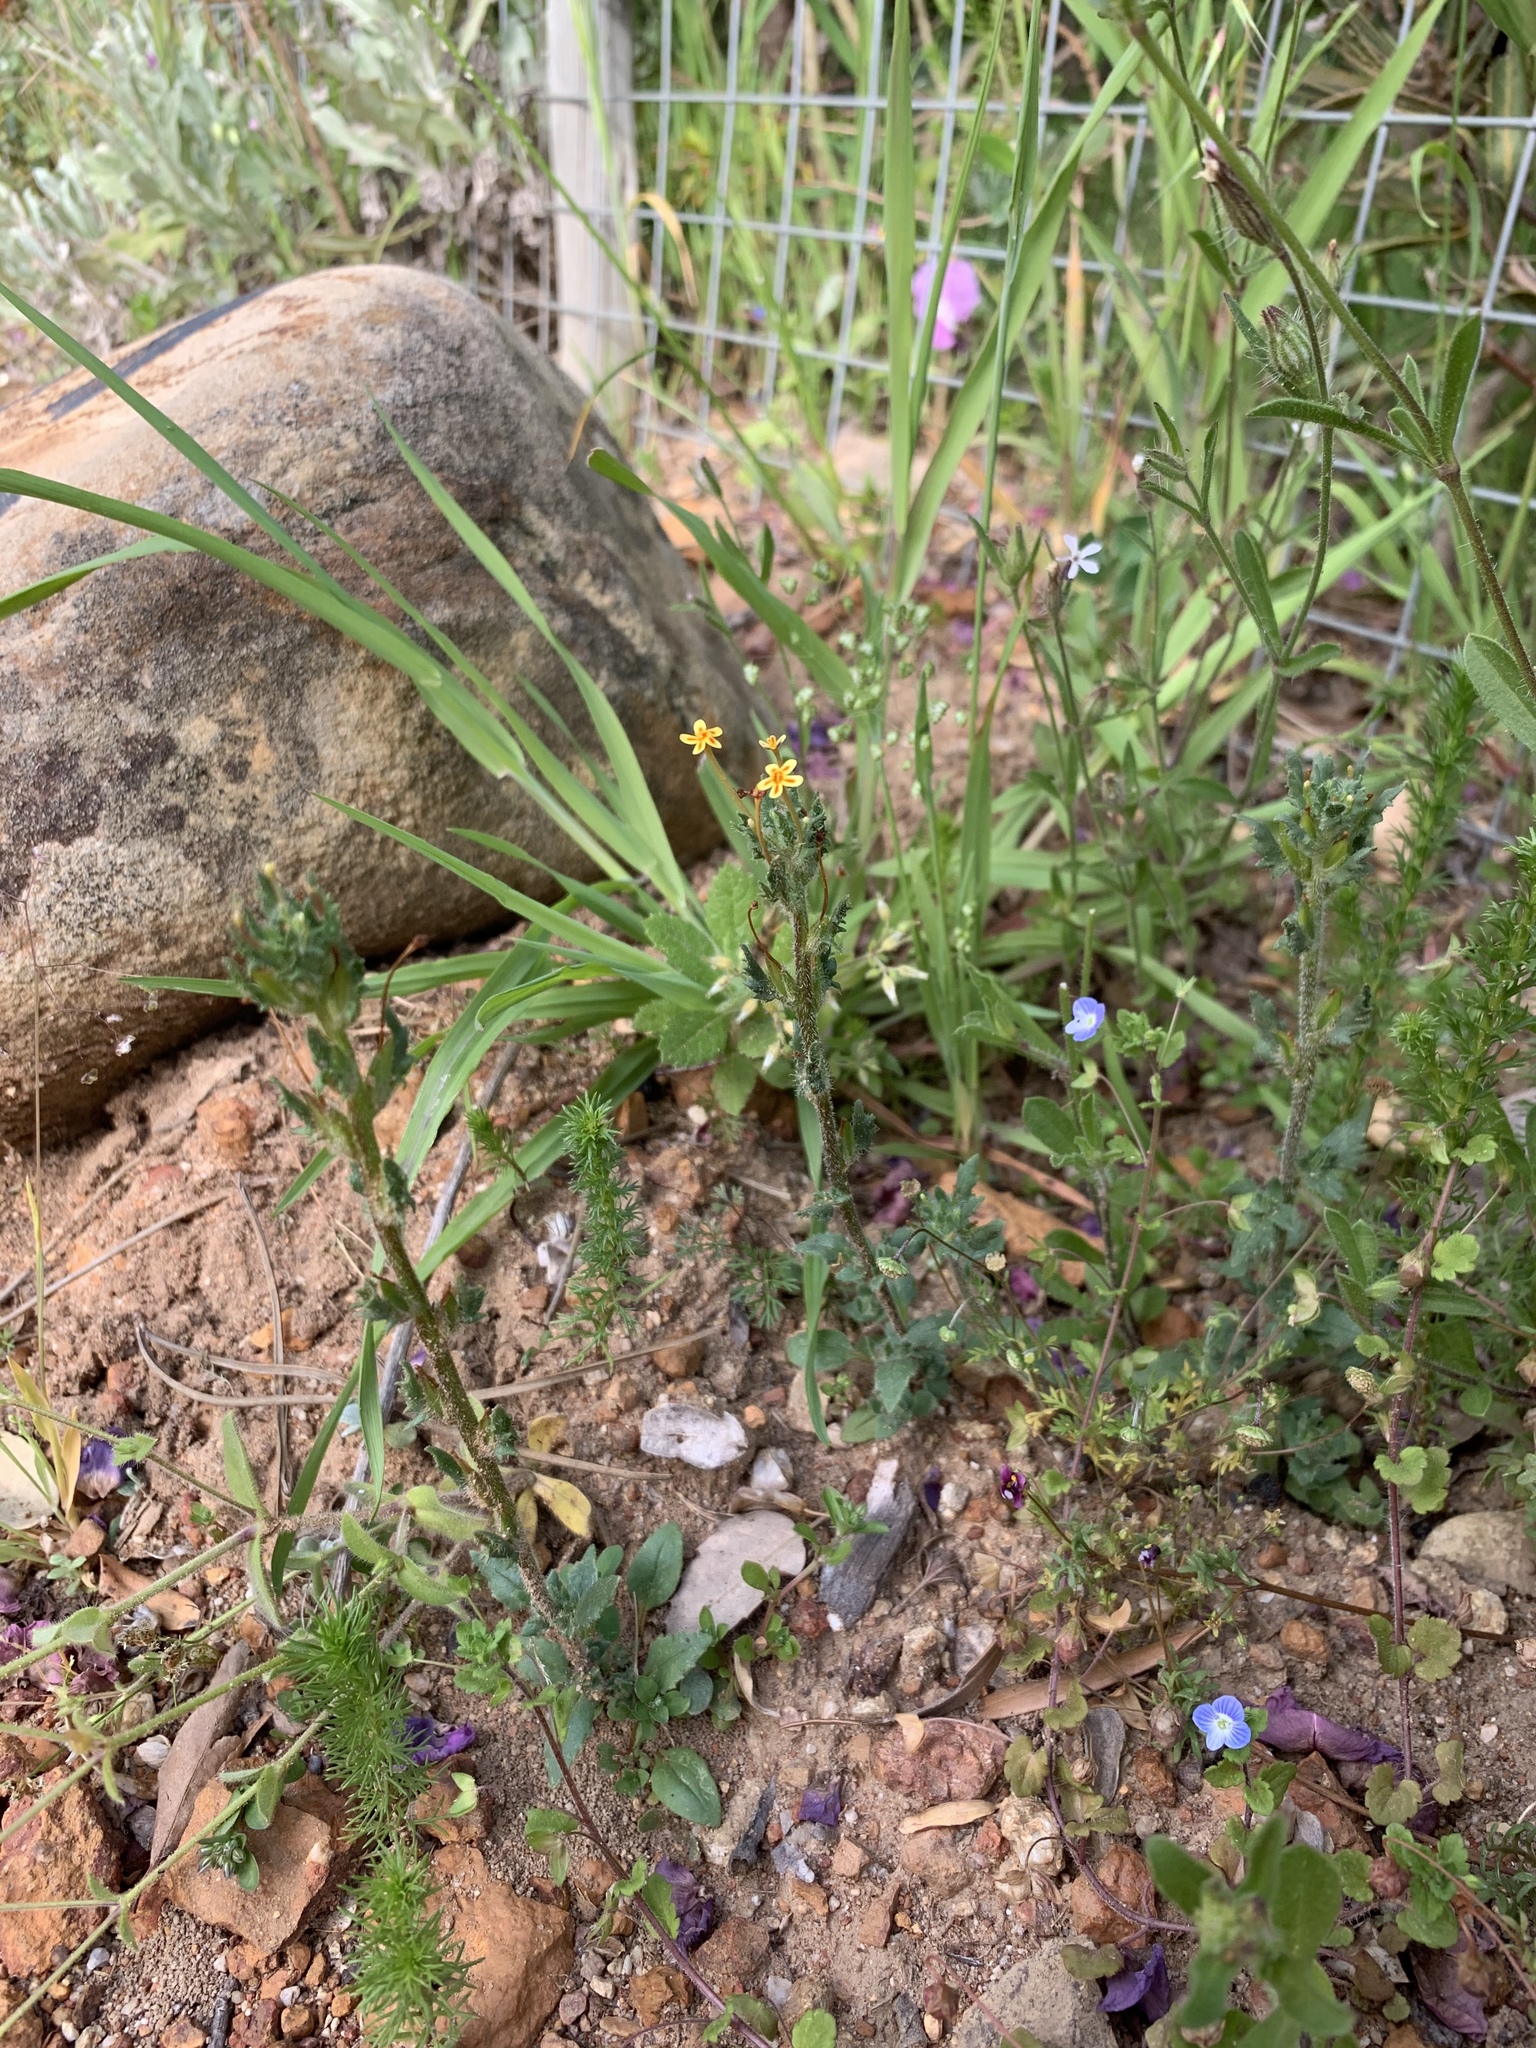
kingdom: Plantae
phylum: Tracheophyta
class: Magnoliopsida
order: Lamiales
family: Scrophulariaceae
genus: Zaluzianskya
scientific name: Zaluzianskya divaricata
